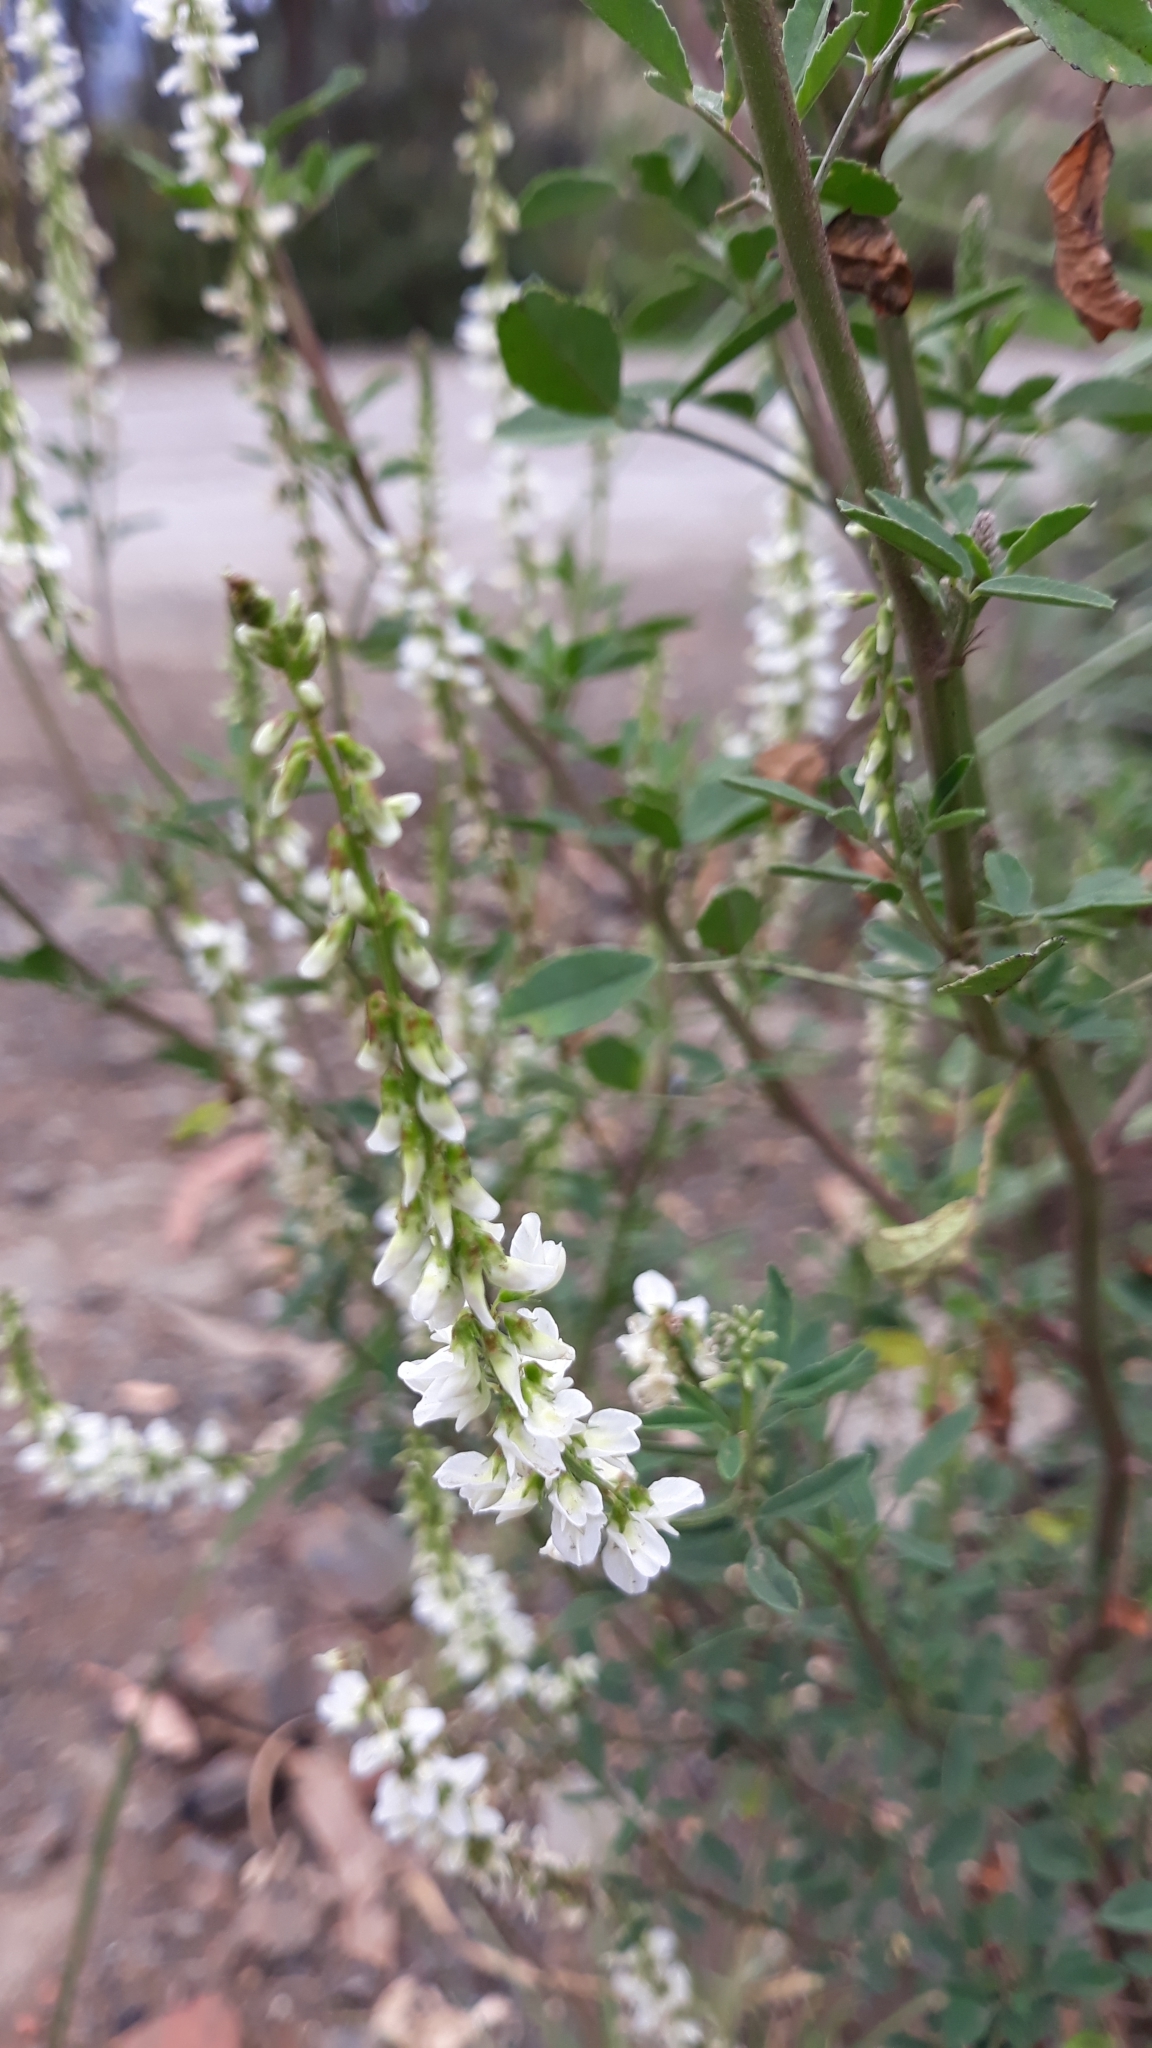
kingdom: Plantae
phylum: Tracheophyta
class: Magnoliopsida
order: Fabales
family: Fabaceae
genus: Melilotus
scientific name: Melilotus albus
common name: White melilot
